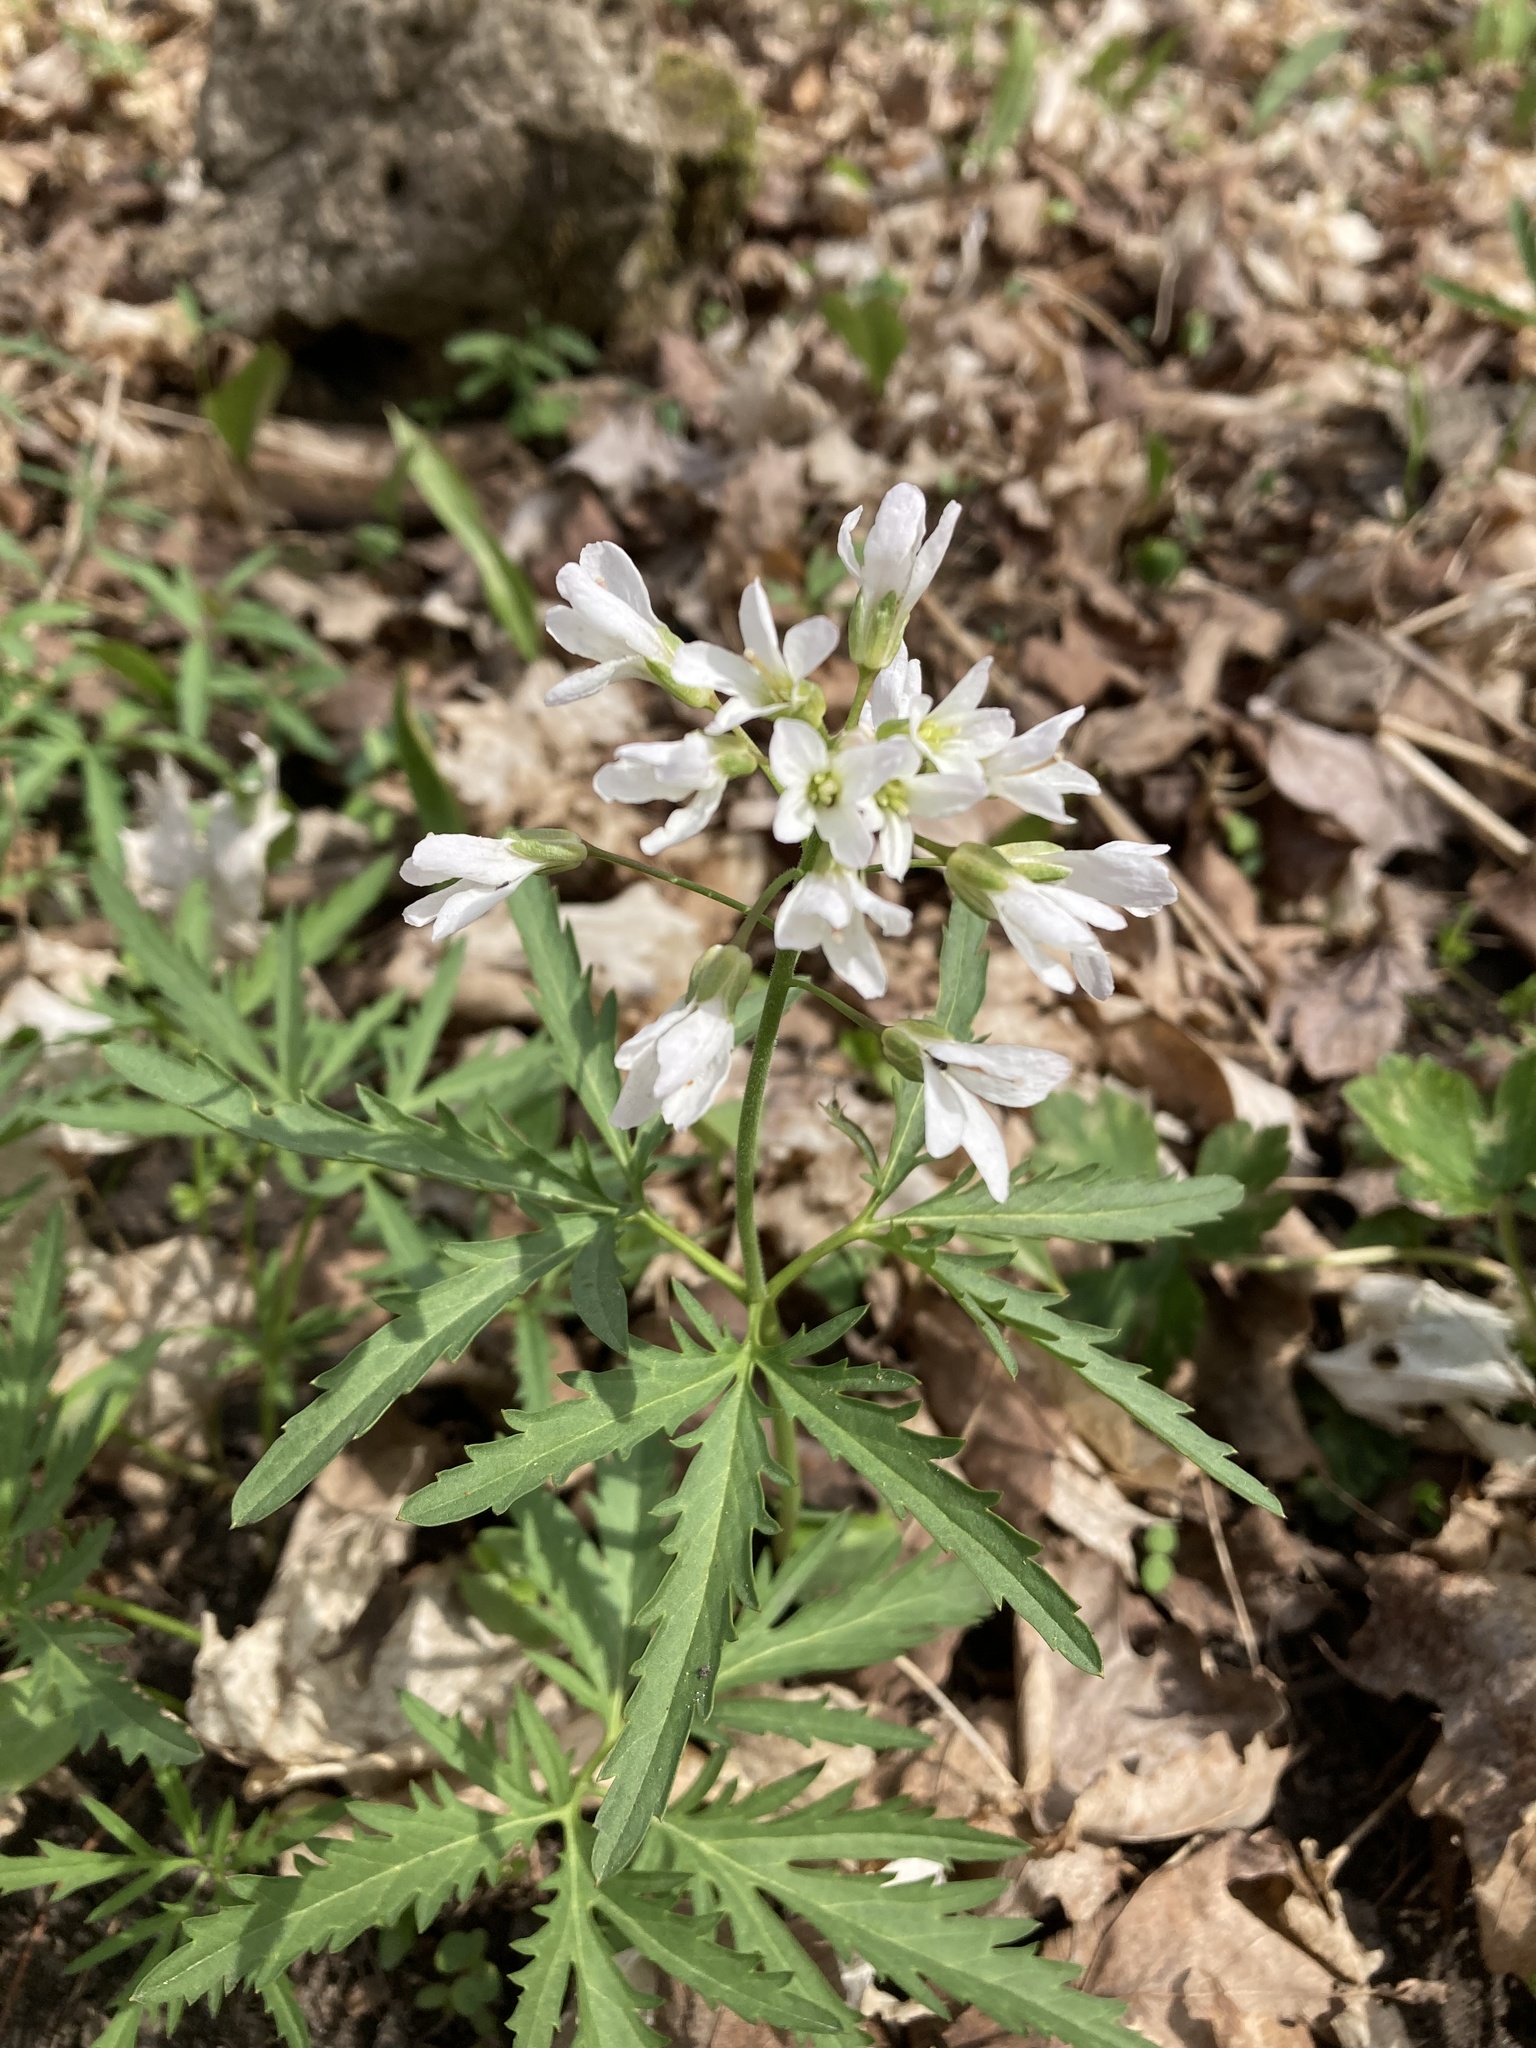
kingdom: Plantae
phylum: Tracheophyta
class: Magnoliopsida
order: Brassicales
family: Brassicaceae
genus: Cardamine
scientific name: Cardamine concatenata
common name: Cut-leaf toothcup
